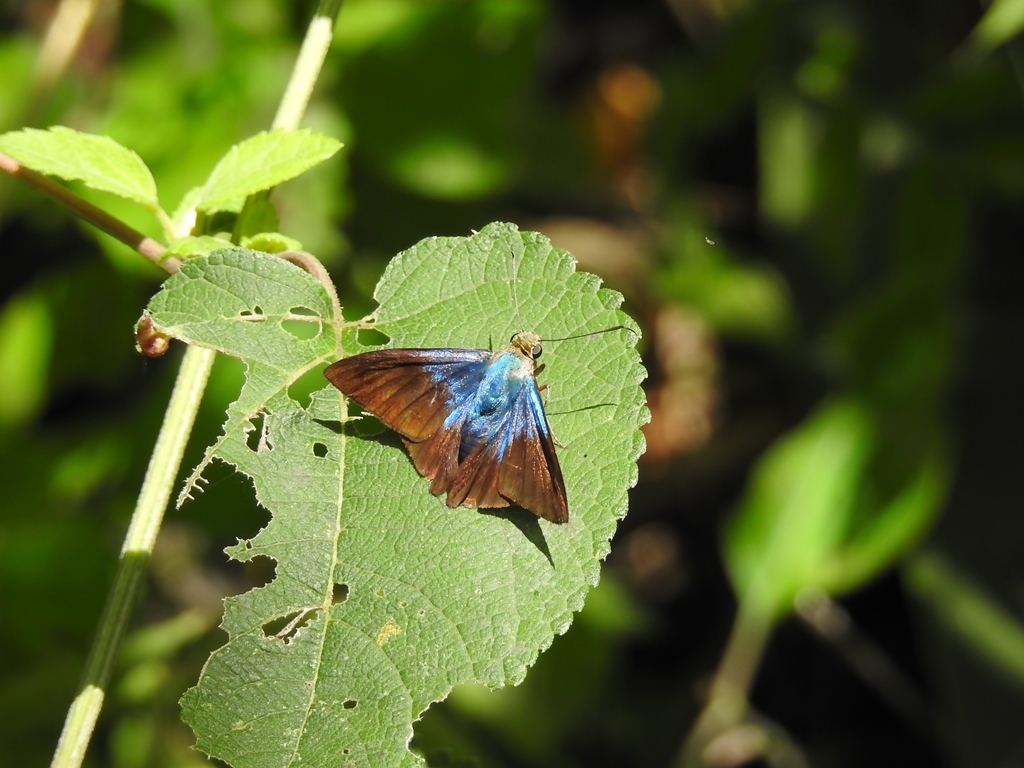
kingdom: Animalia
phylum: Arthropoda
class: Insecta
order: Lepidoptera
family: Hesperiidae
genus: Astraptes
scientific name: Astraptes creteus
